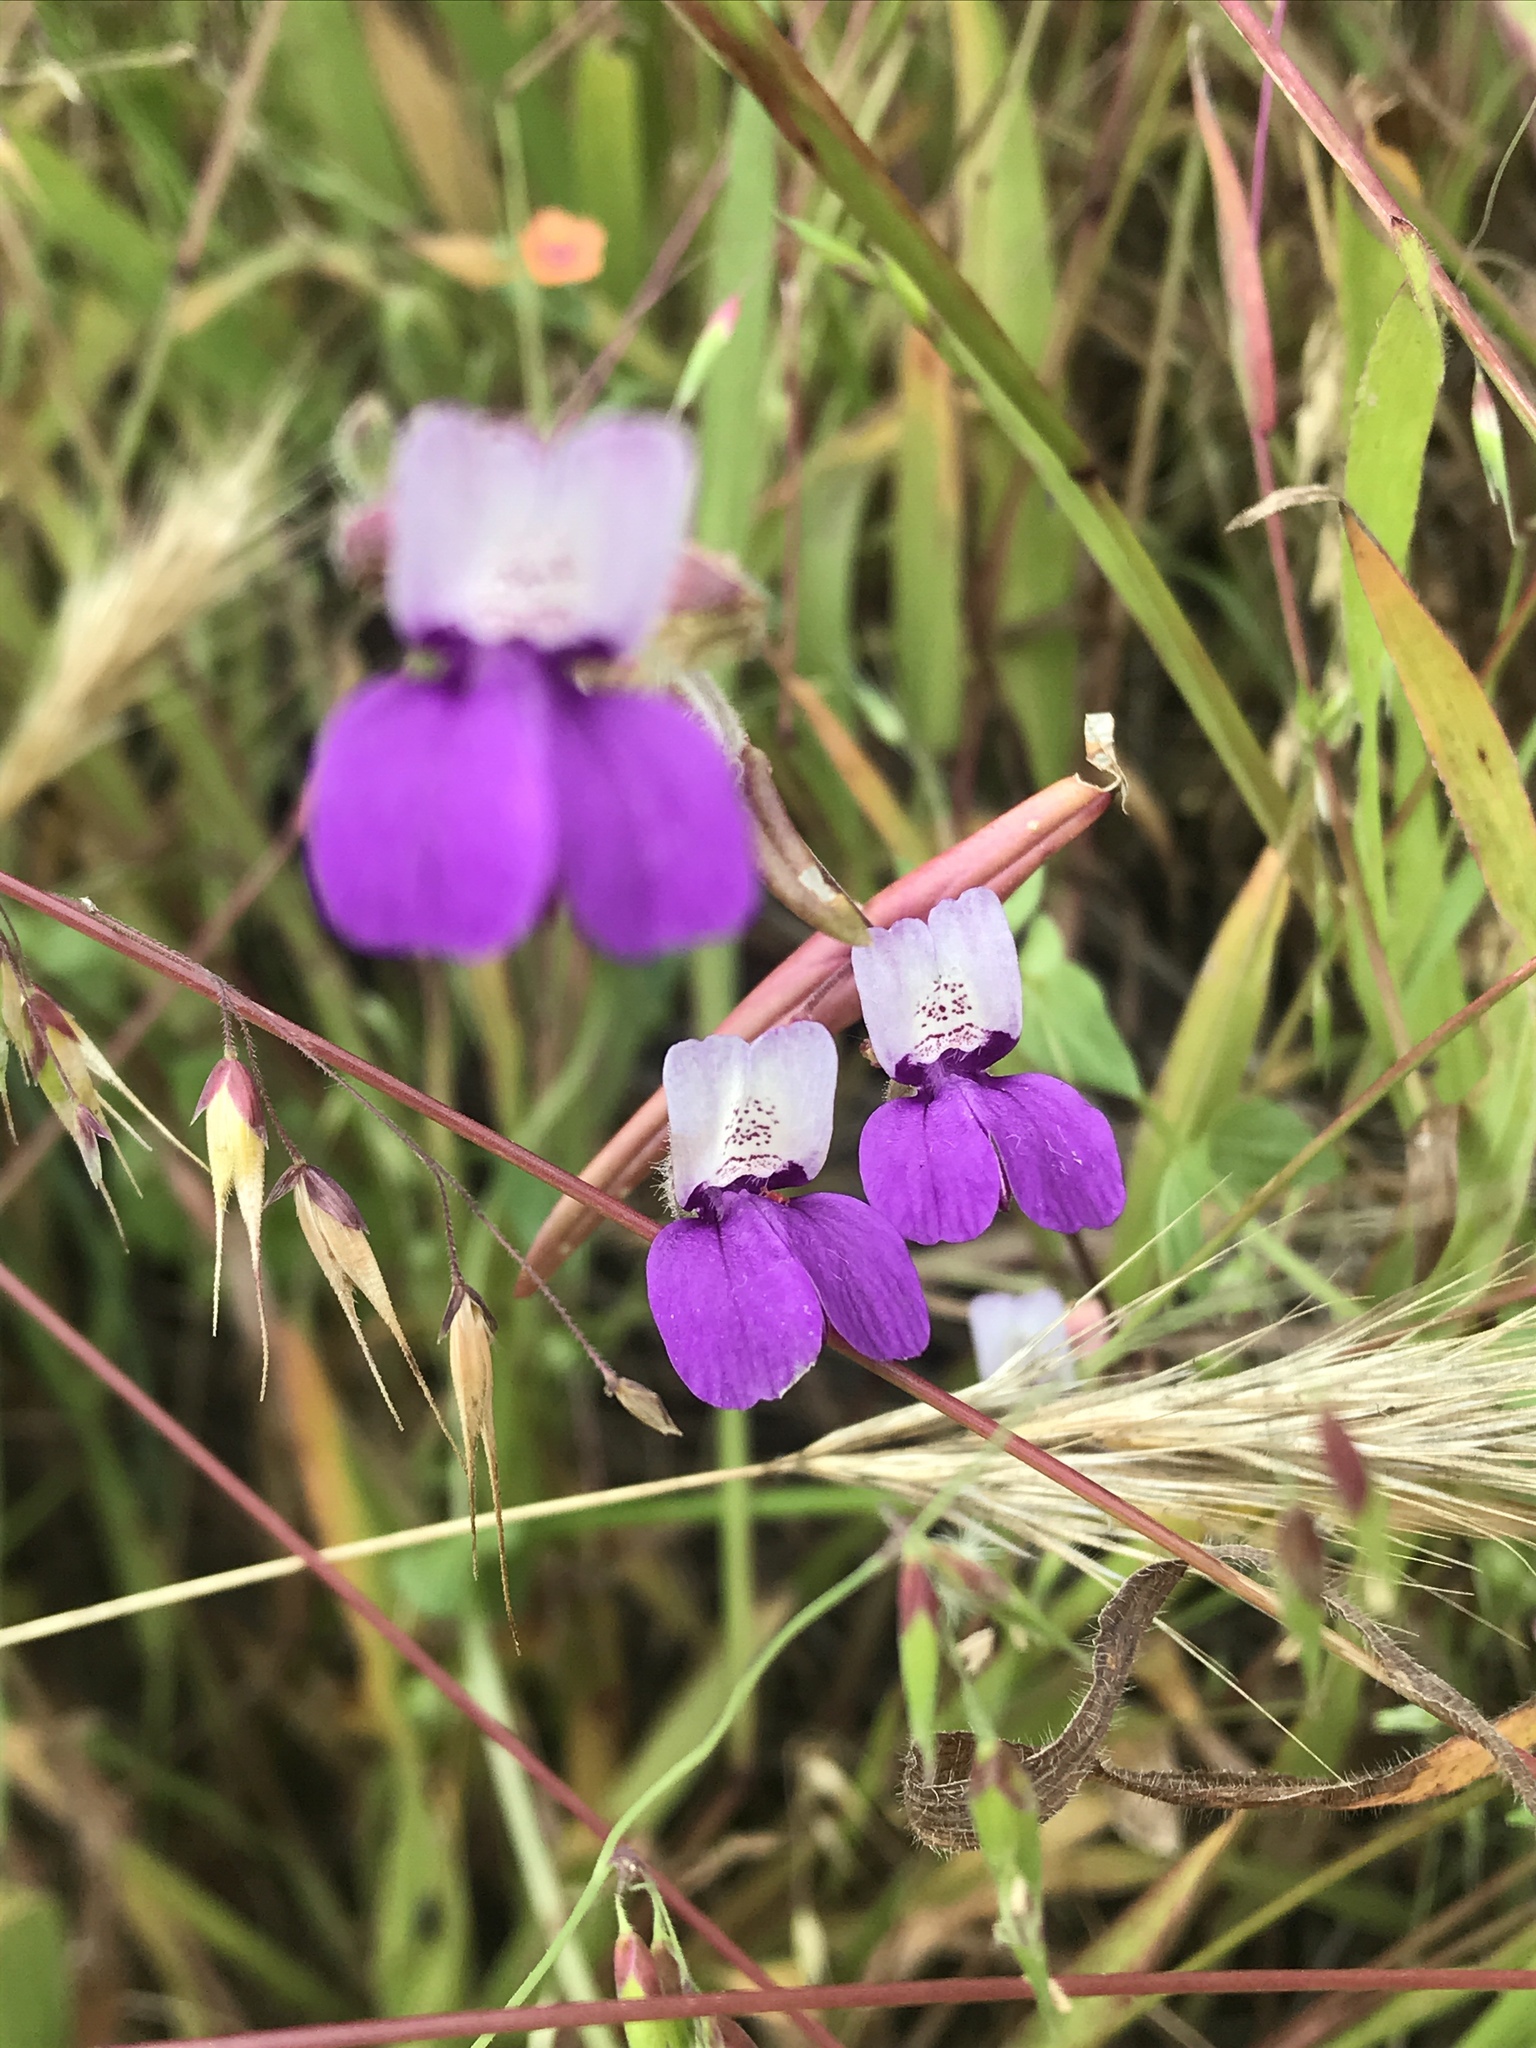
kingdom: Plantae
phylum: Tracheophyta
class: Magnoliopsida
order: Lamiales
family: Plantaginaceae
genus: Collinsia
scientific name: Collinsia heterophylla
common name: Chinese-houses
